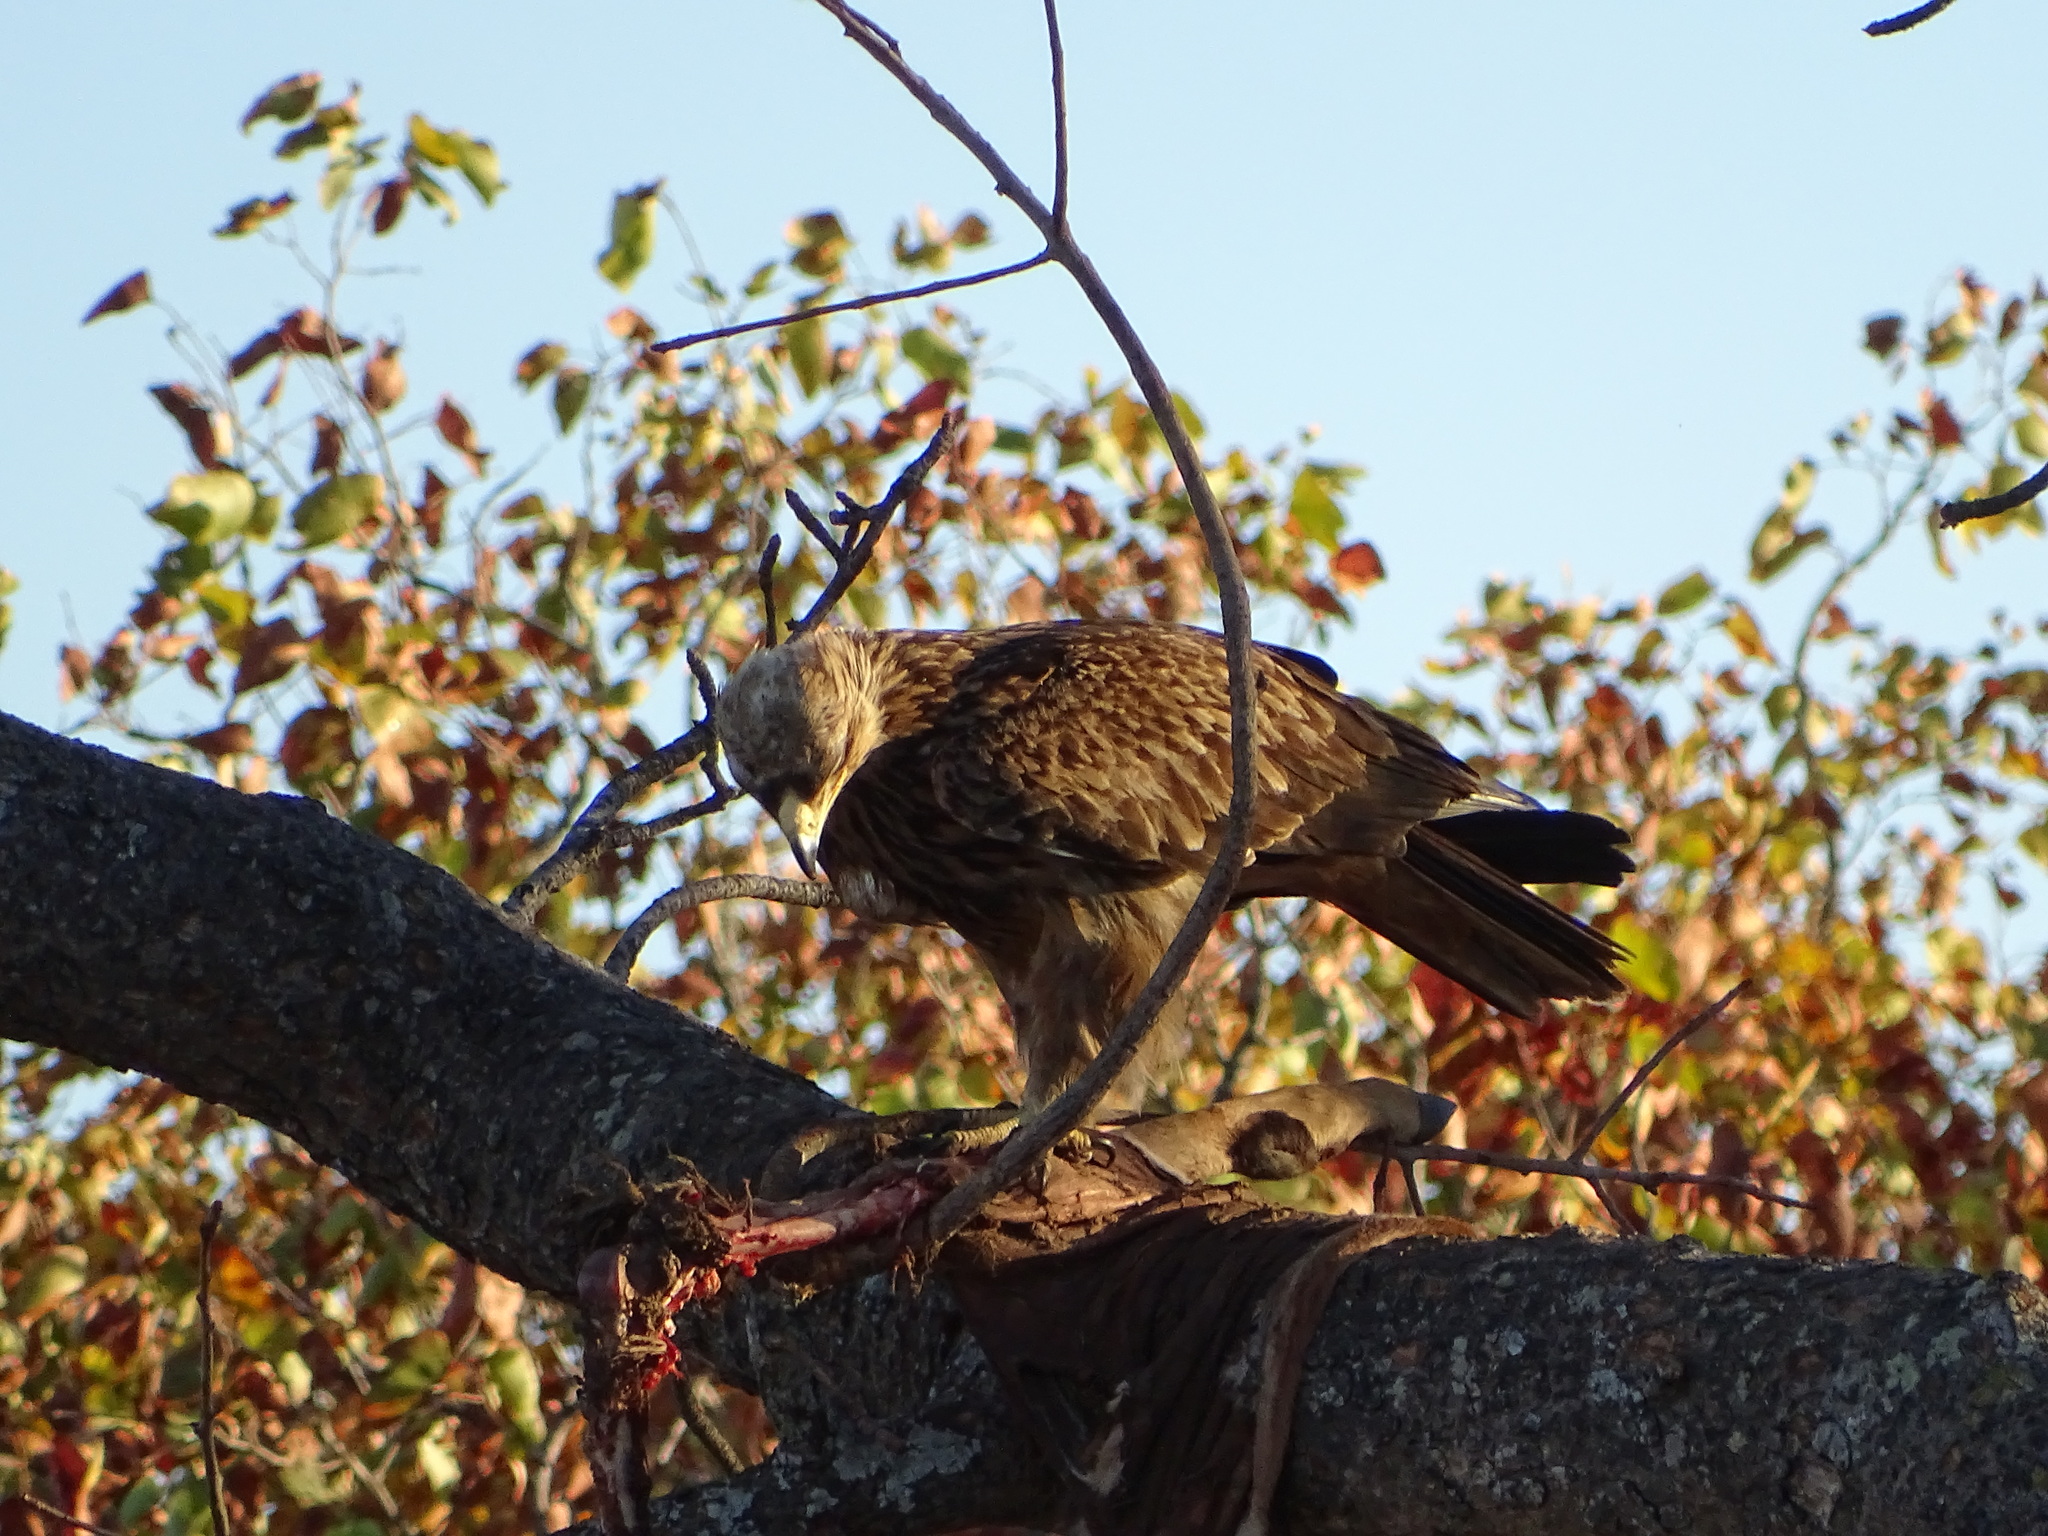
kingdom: Animalia
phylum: Chordata
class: Aves
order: Accipitriformes
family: Accipitridae
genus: Aquila
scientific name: Aquila rapax
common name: Tawny eagle
